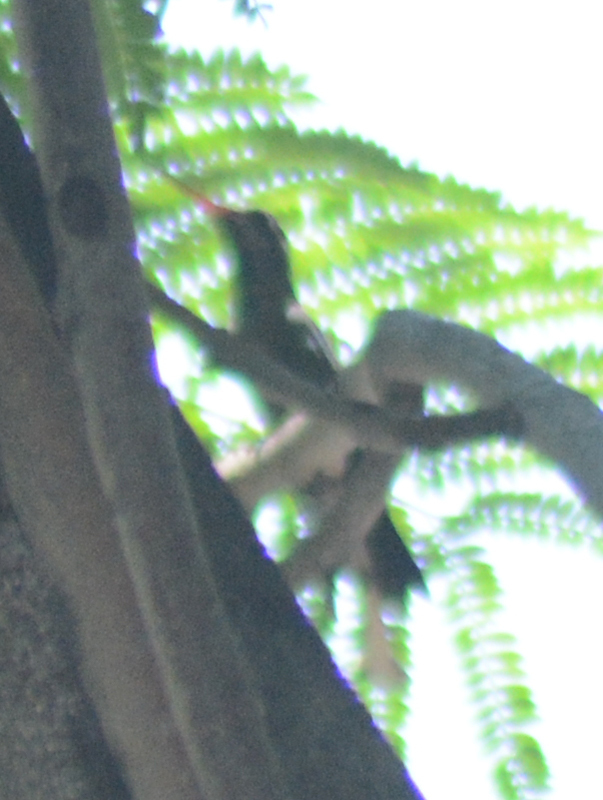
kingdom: Animalia
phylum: Chordata
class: Aves
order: Apodiformes
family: Trochilidae
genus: Cynanthus
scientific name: Cynanthus latirostris
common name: Broad-billed hummingbird
